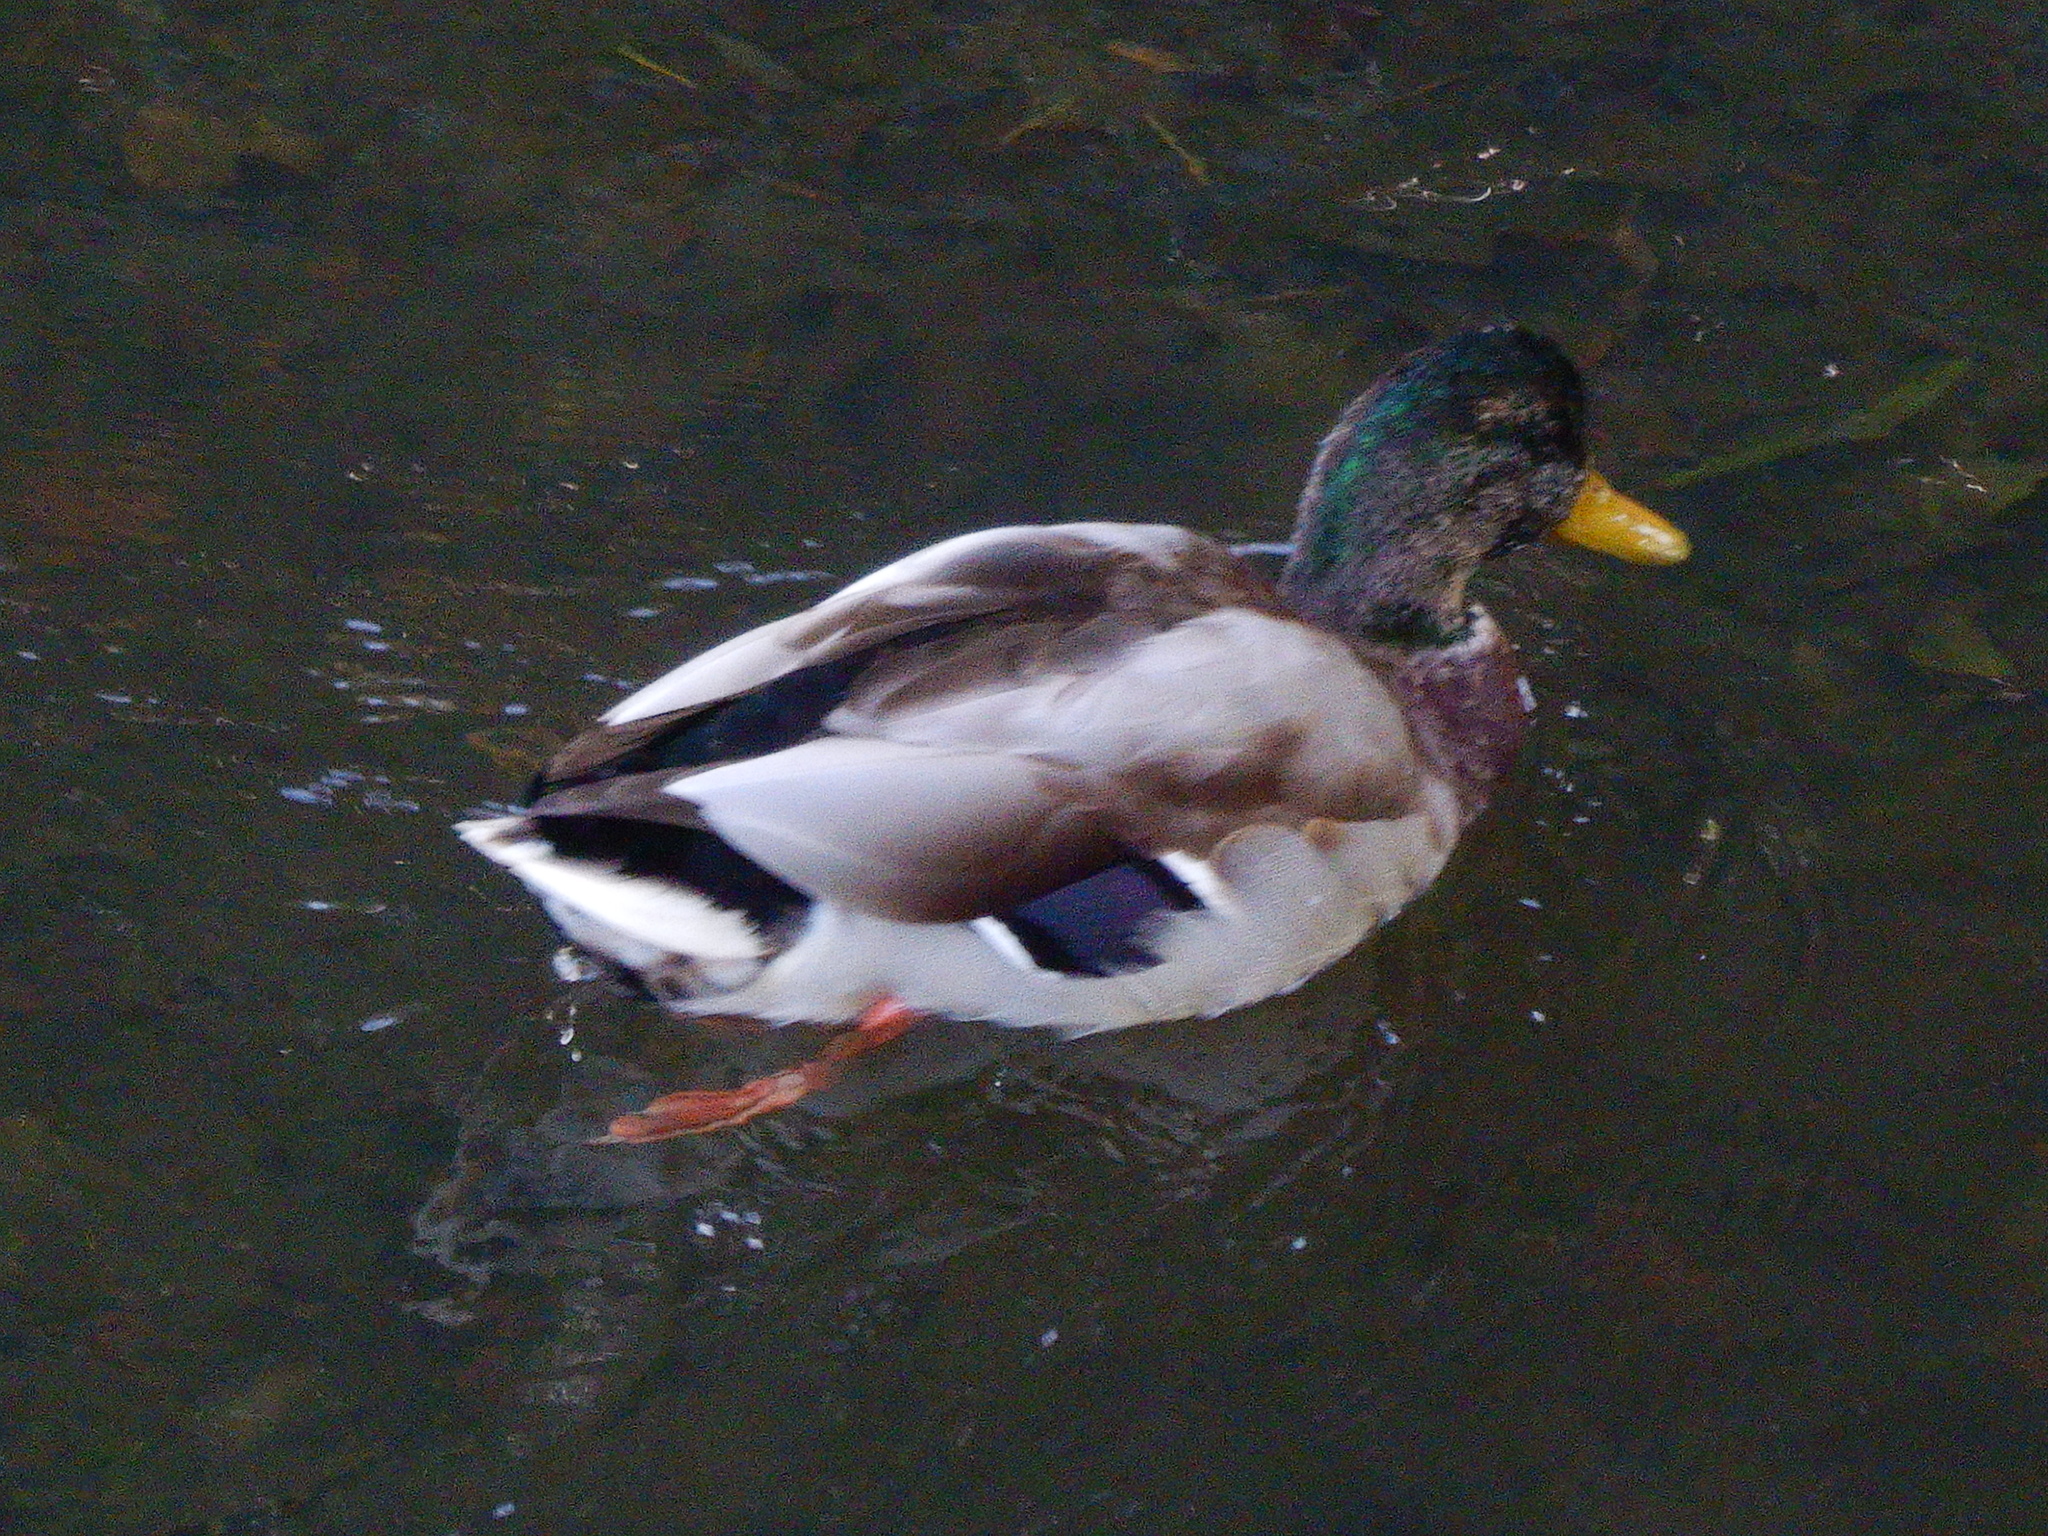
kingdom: Animalia
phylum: Chordata
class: Aves
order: Anseriformes
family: Anatidae
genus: Anas
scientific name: Anas platyrhynchos
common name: Mallard
